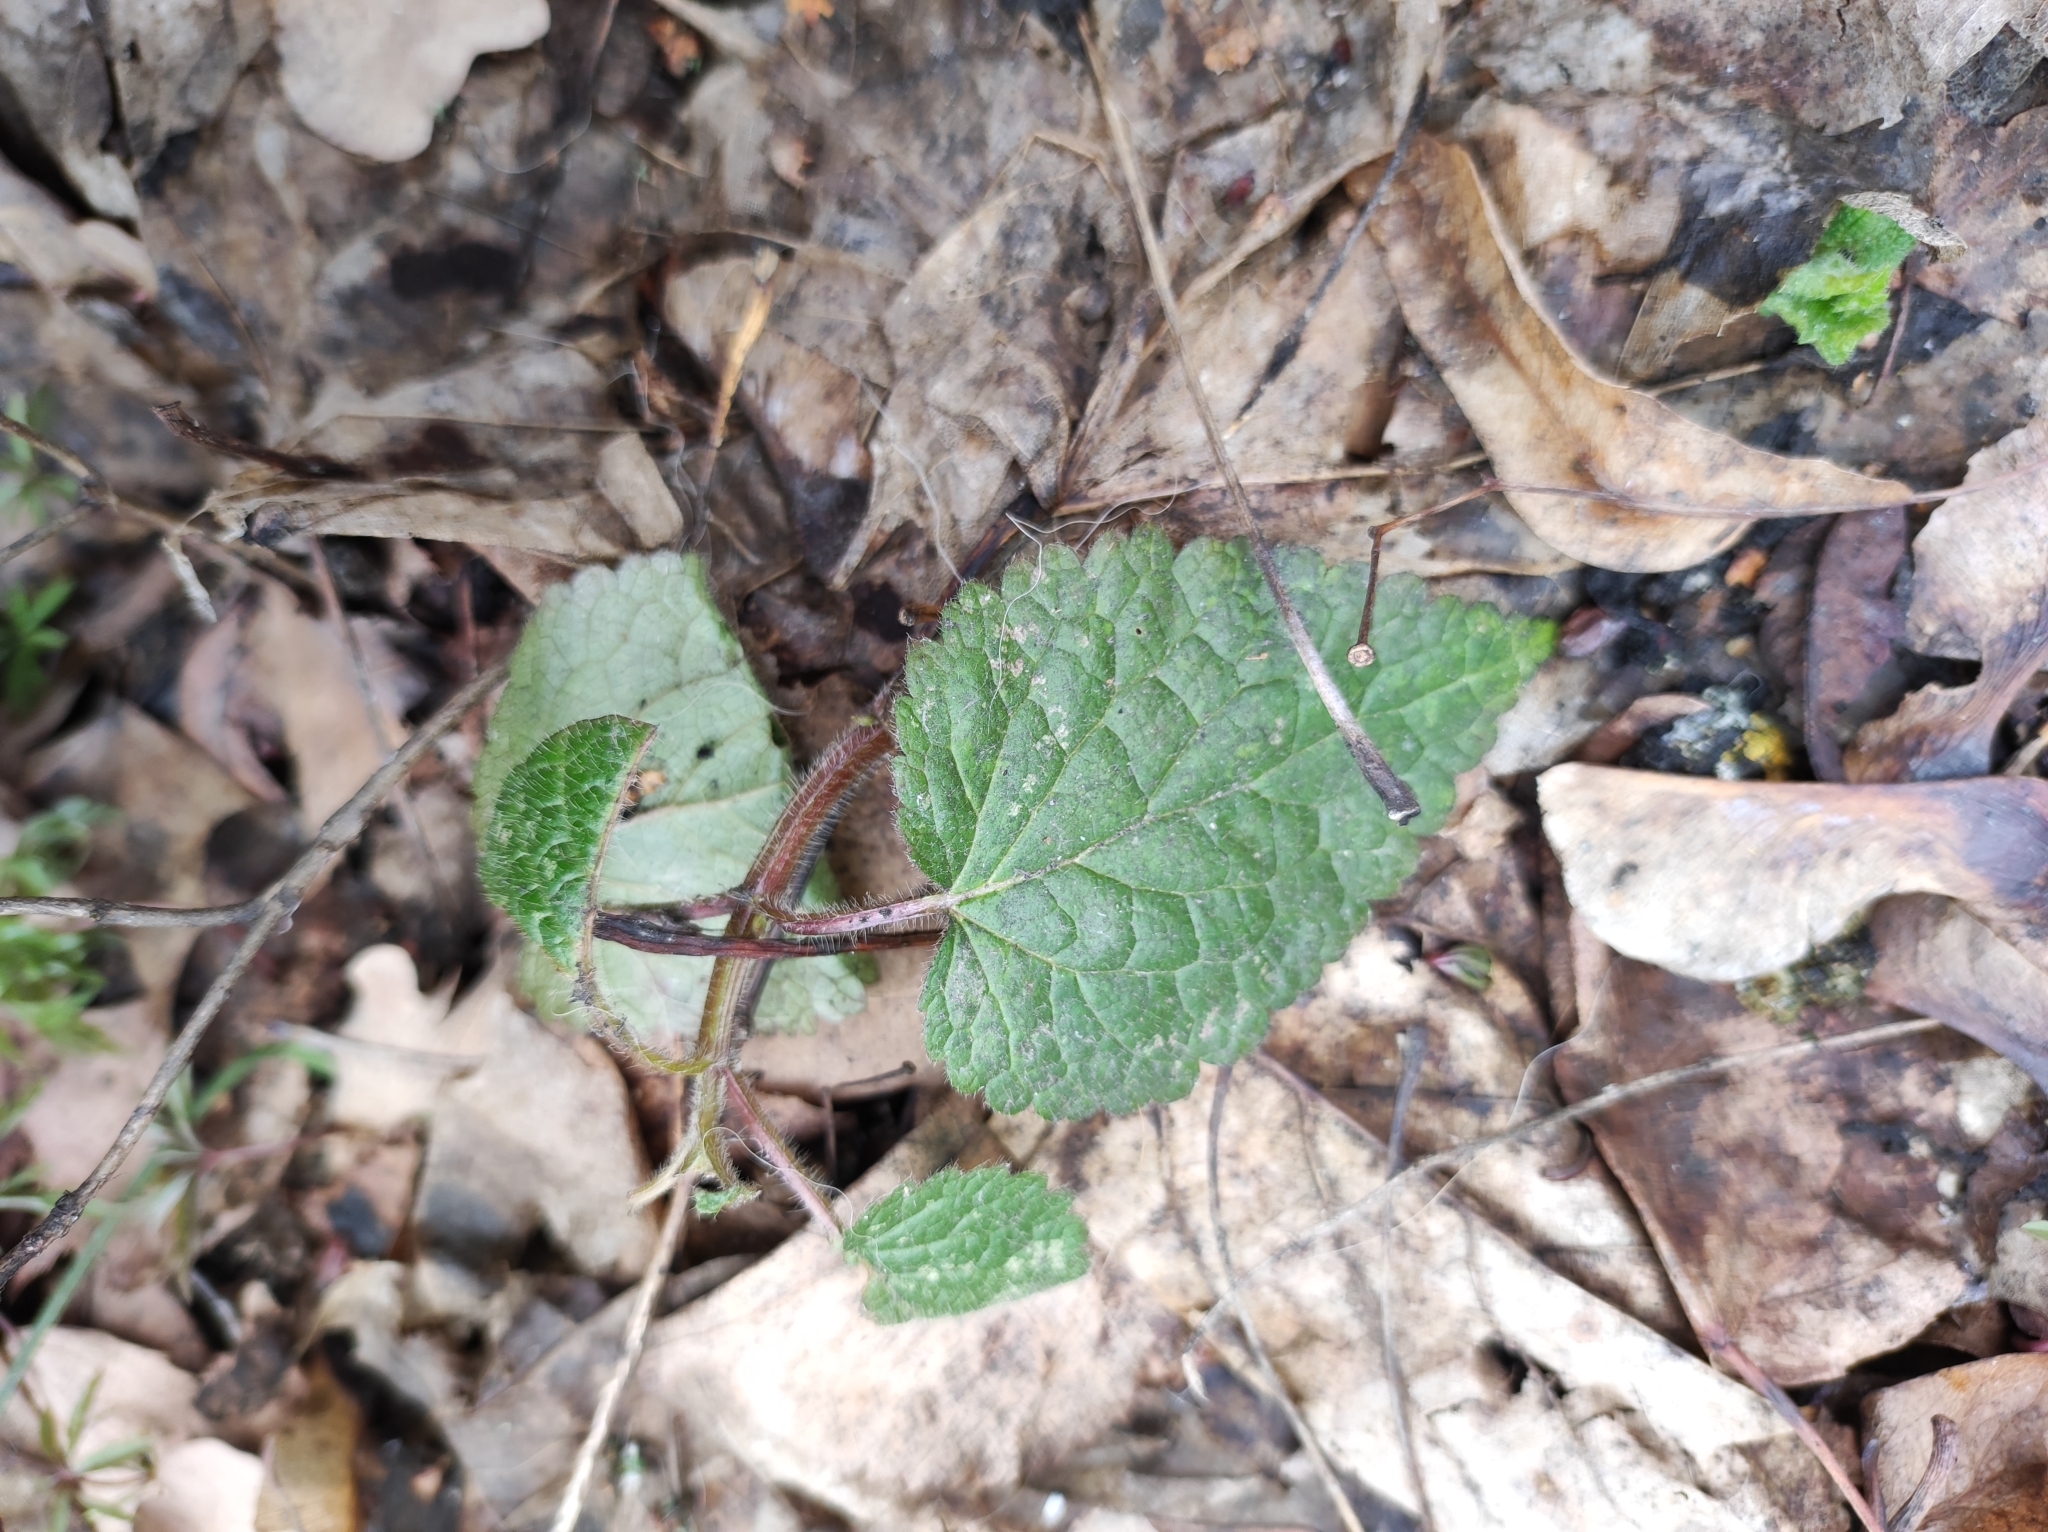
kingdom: Plantae
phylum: Tracheophyta
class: Magnoliopsida
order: Lamiales
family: Lamiaceae
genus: Stachys
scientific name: Stachys sylvatica
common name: Hedge woundwort
